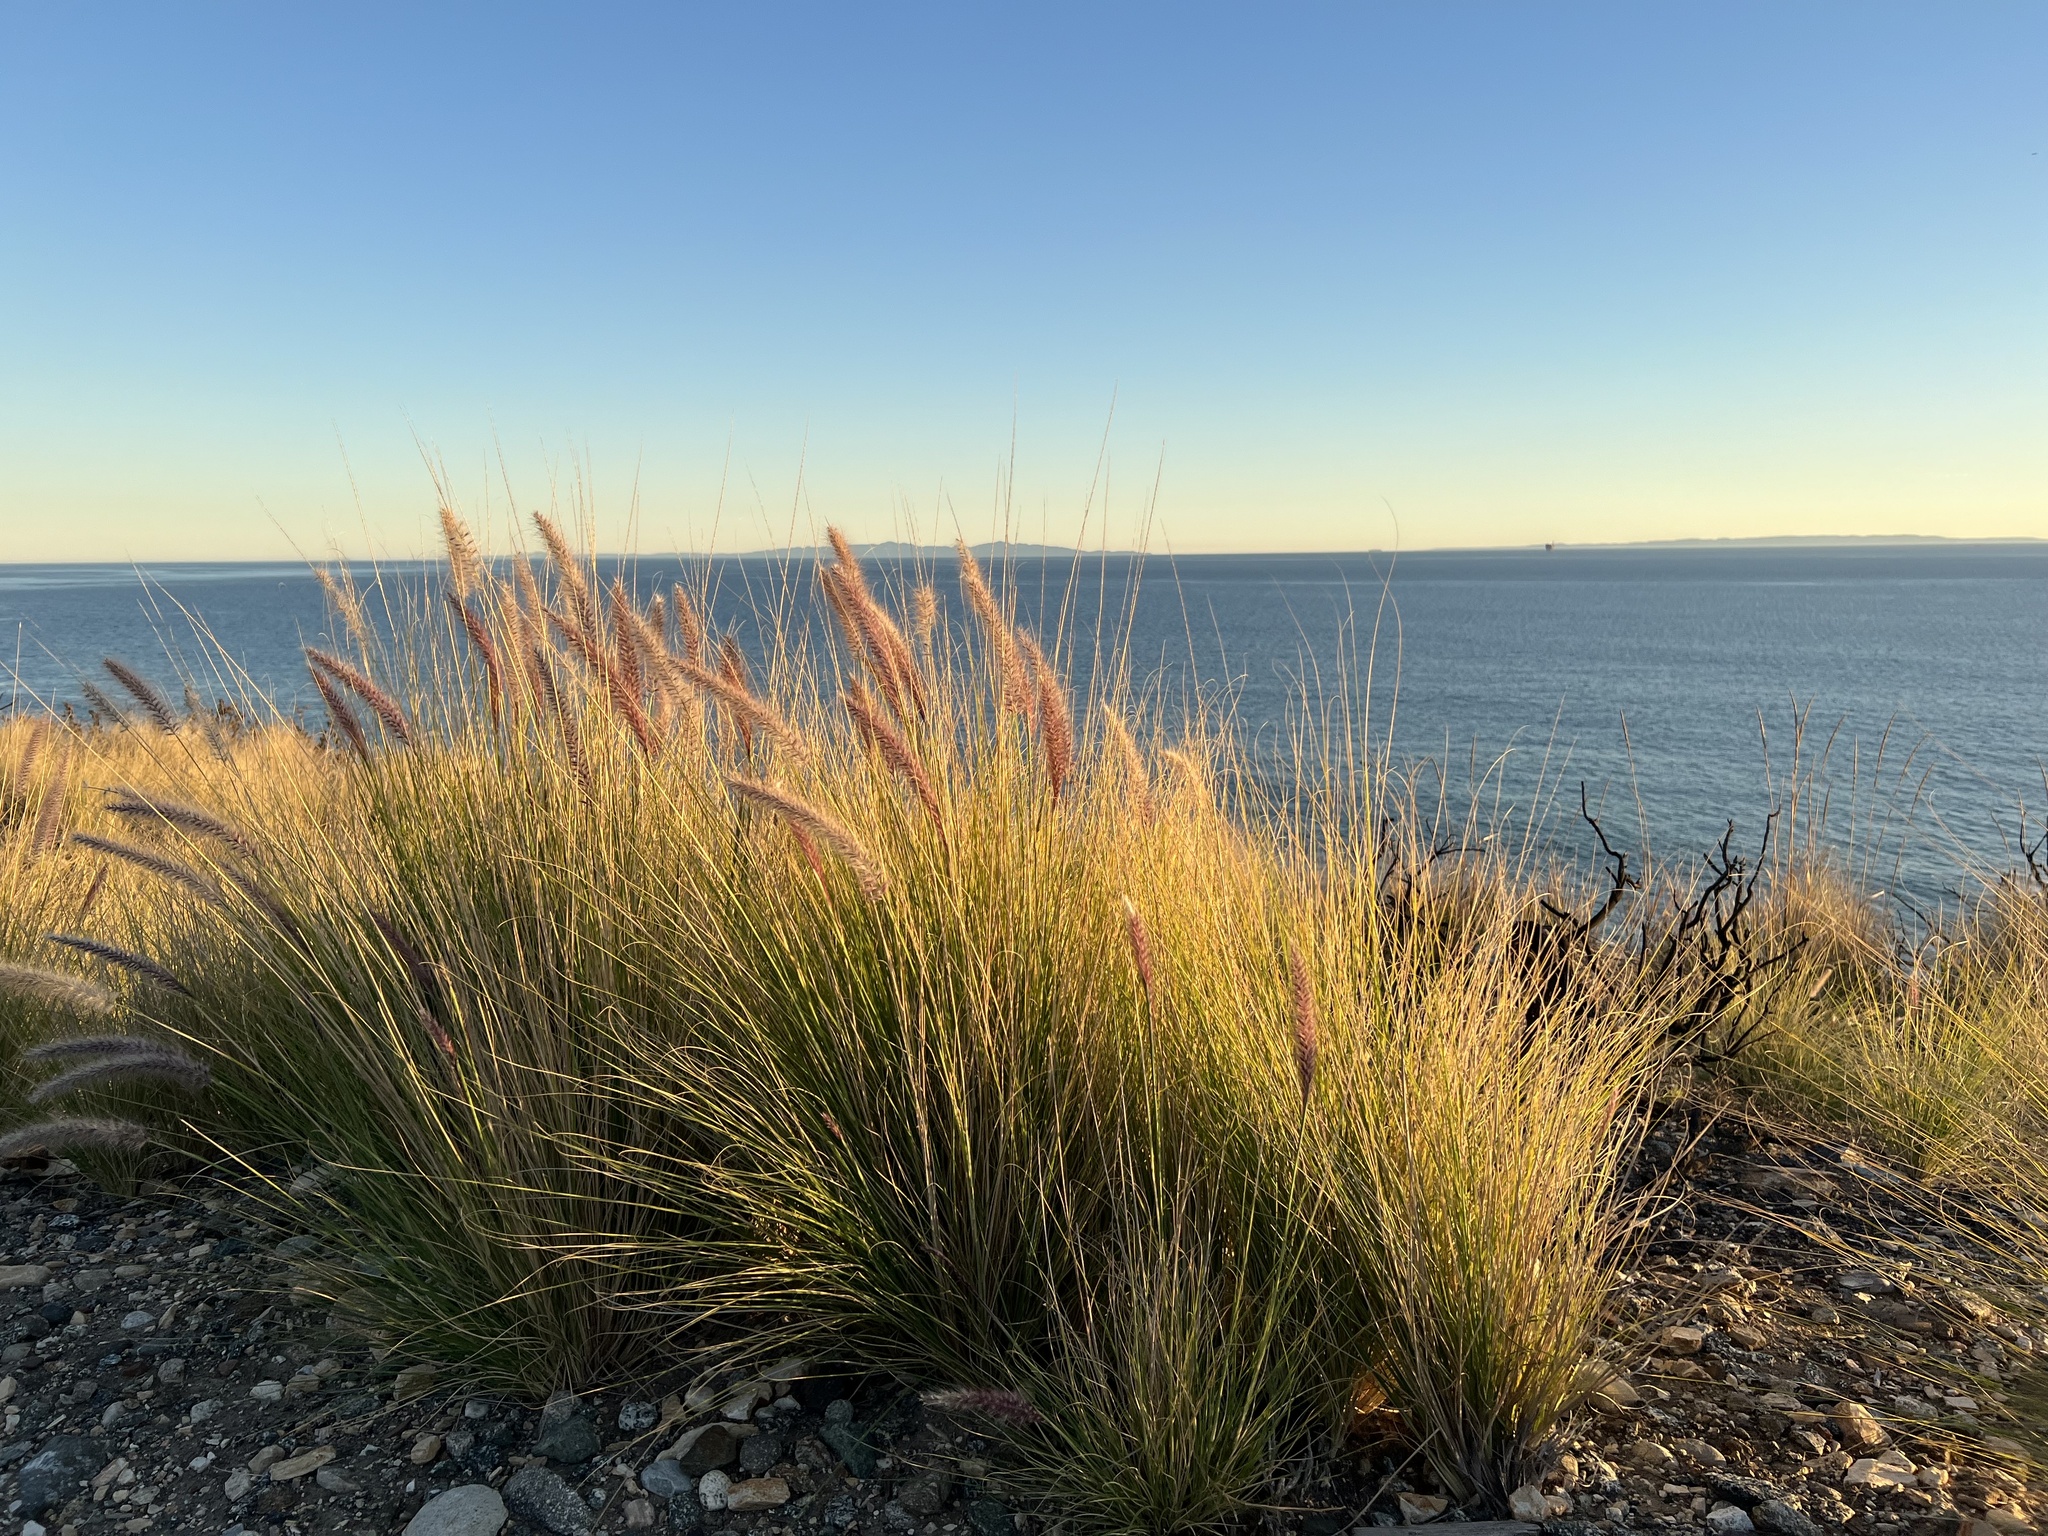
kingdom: Plantae
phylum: Tracheophyta
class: Liliopsida
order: Poales
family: Poaceae
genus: Cenchrus
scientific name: Cenchrus setaceus
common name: Crimson fountaingrass
